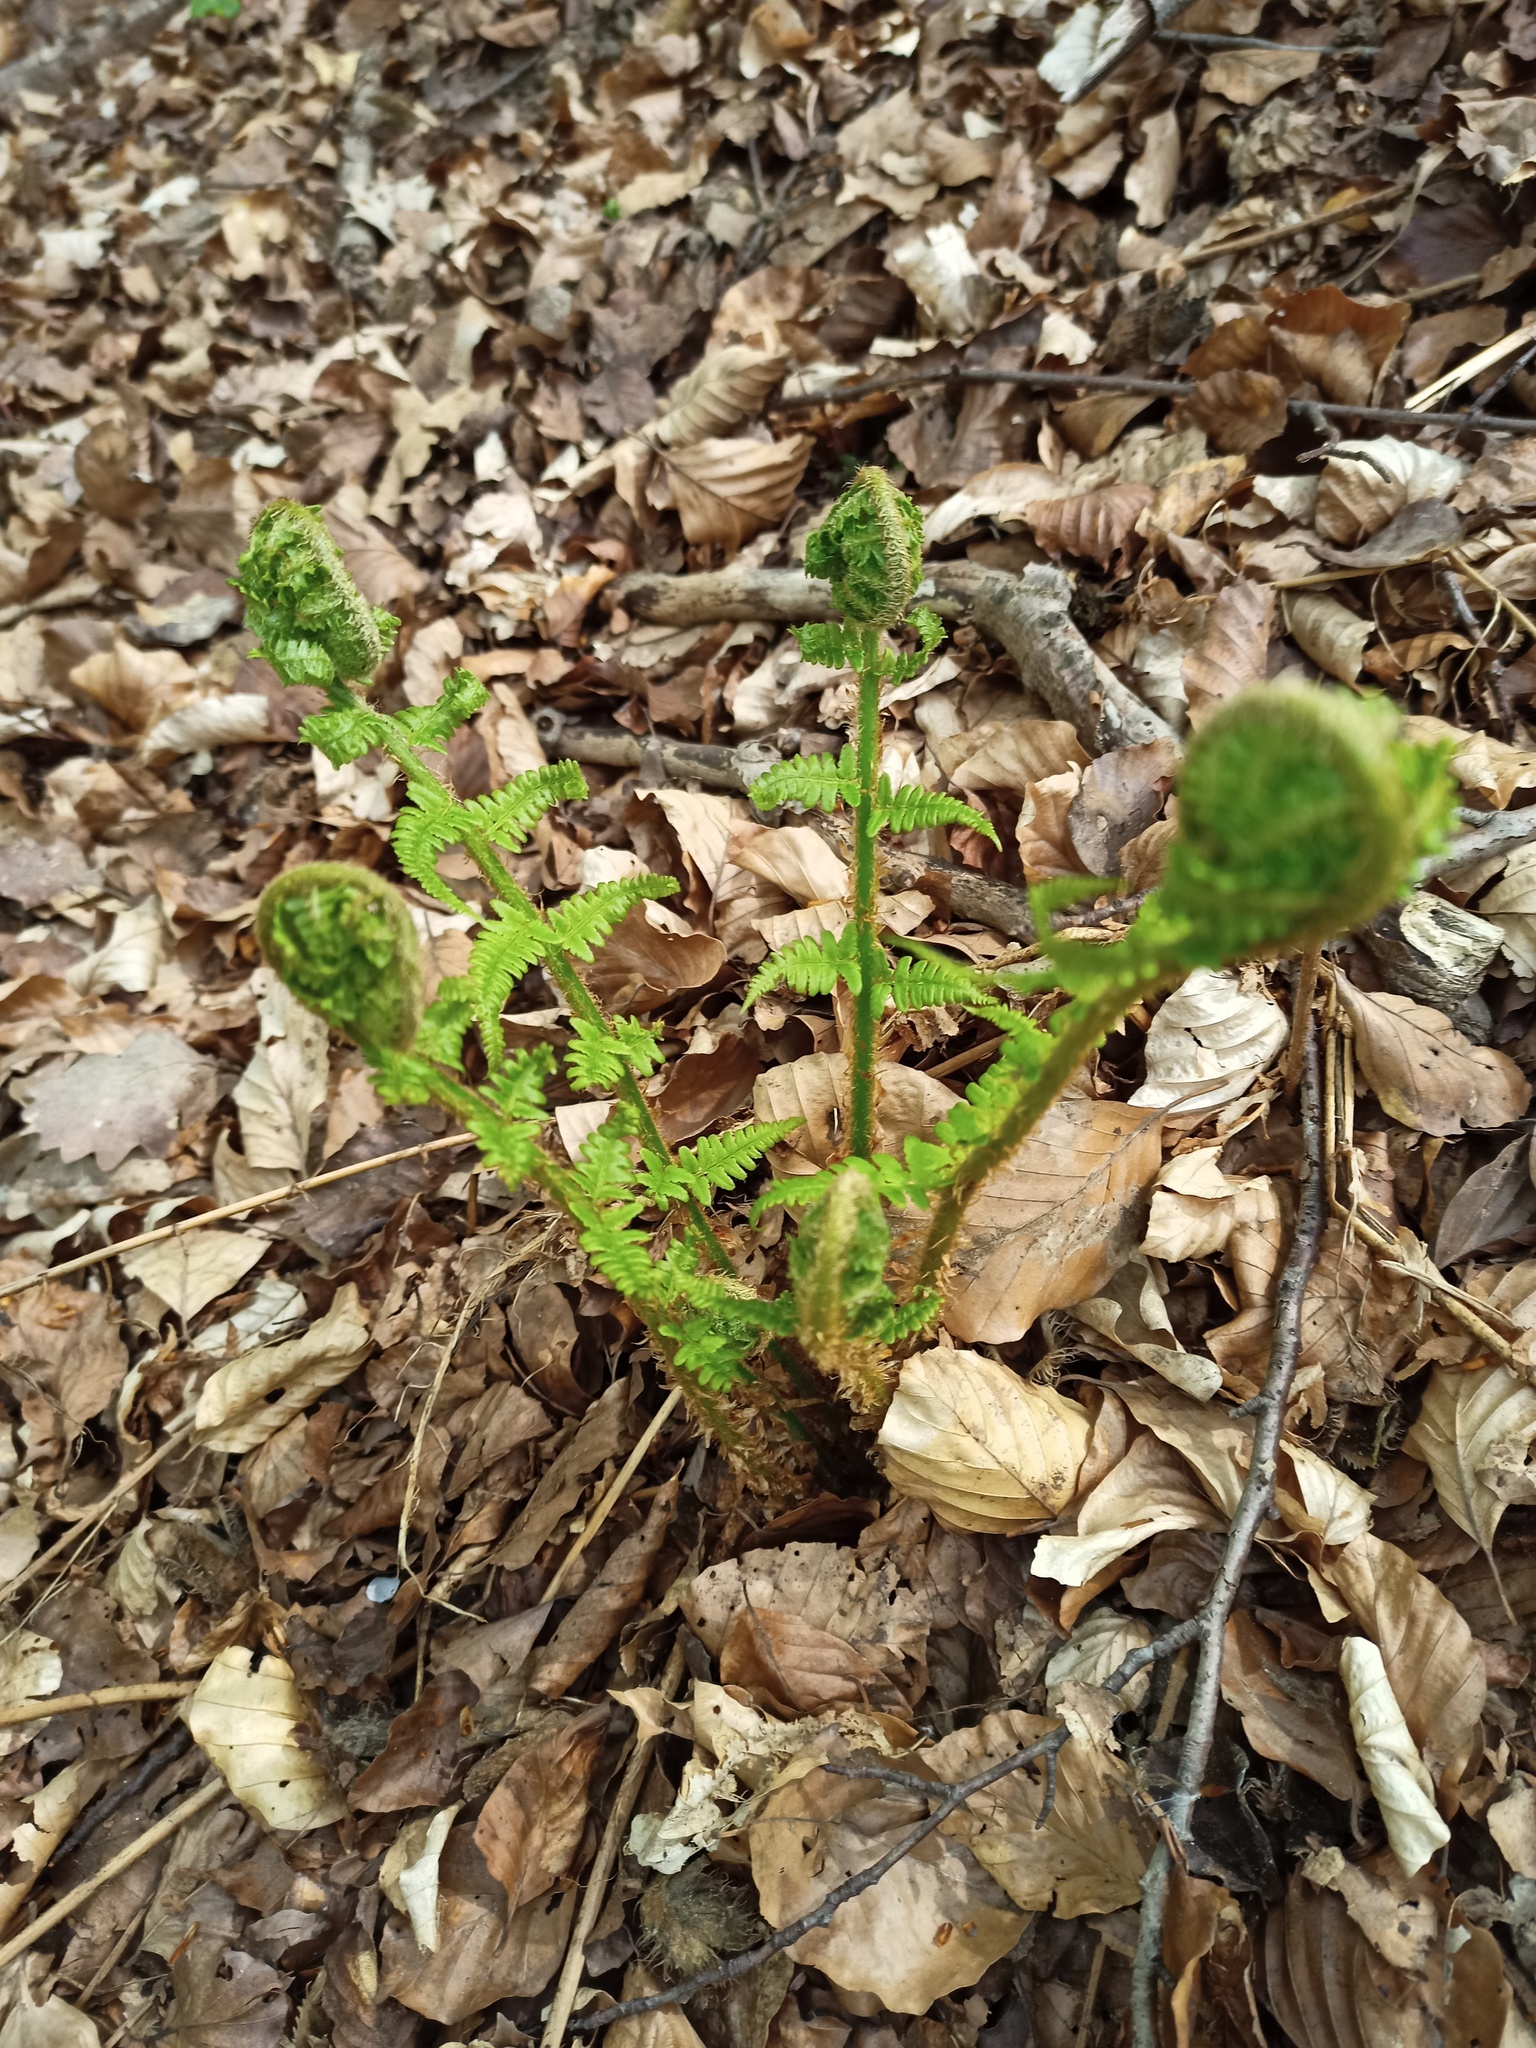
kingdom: Plantae
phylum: Tracheophyta
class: Polypodiopsida
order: Polypodiales
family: Dryopteridaceae
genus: Dryopteris
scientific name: Dryopteris filix-mas
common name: Male fern
